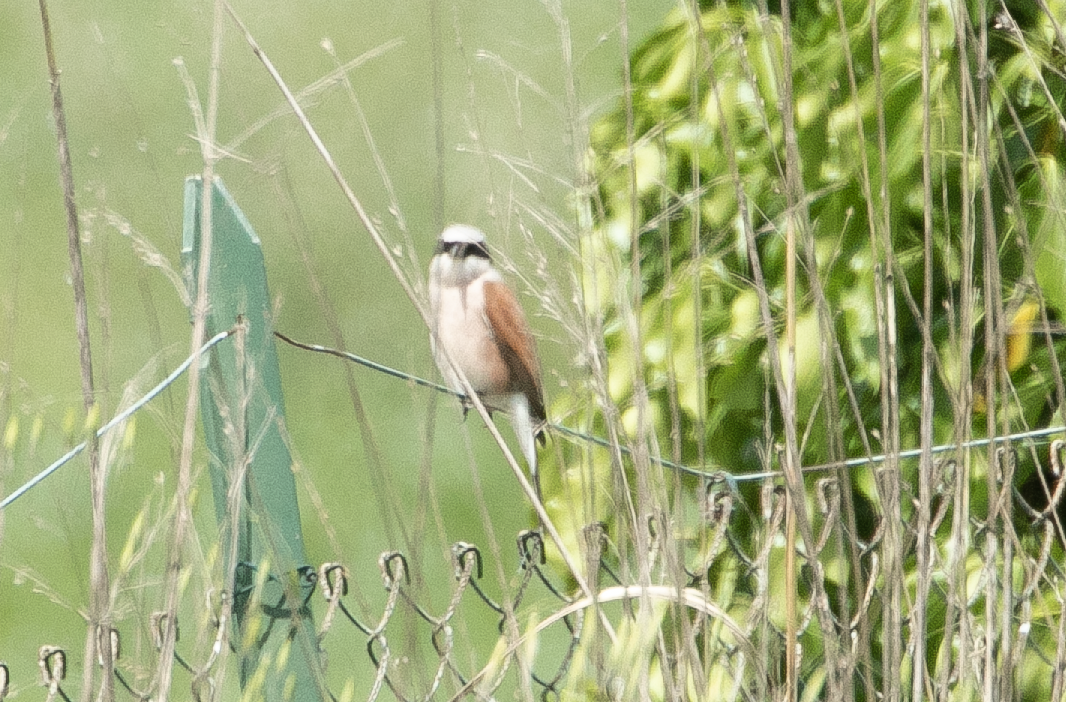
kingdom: Animalia
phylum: Chordata
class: Aves
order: Passeriformes
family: Laniidae
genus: Lanius
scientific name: Lanius collurio
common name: Red-backed shrike
